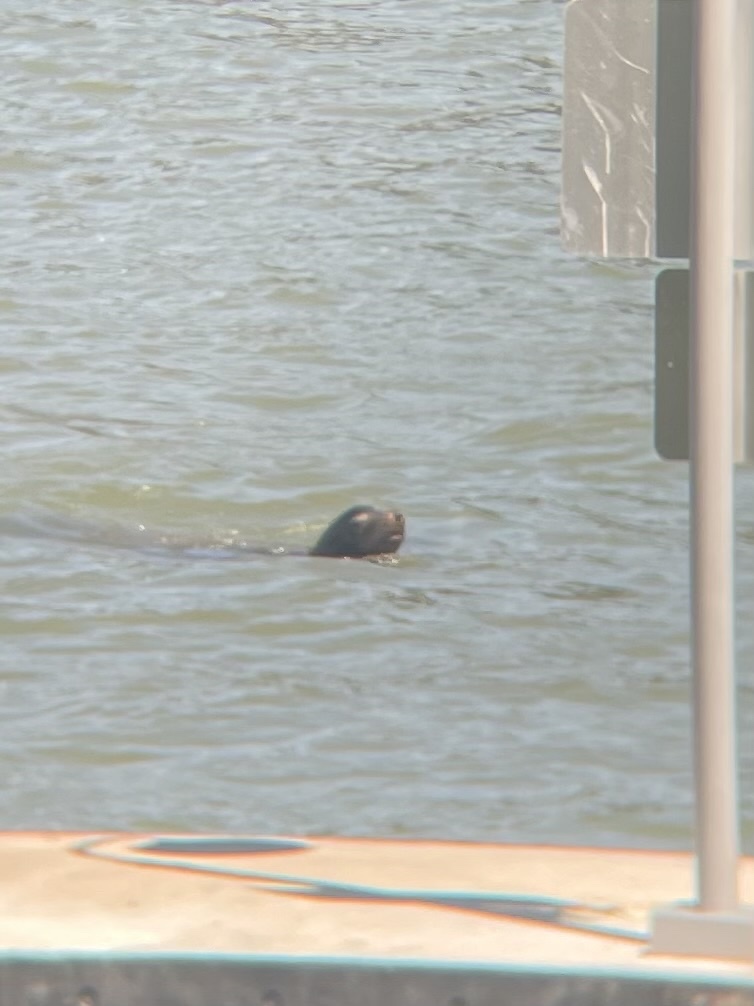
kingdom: Animalia
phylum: Chordata
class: Mammalia
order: Carnivora
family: Otariidae
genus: Zalophus
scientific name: Zalophus californianus
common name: California sea lion
